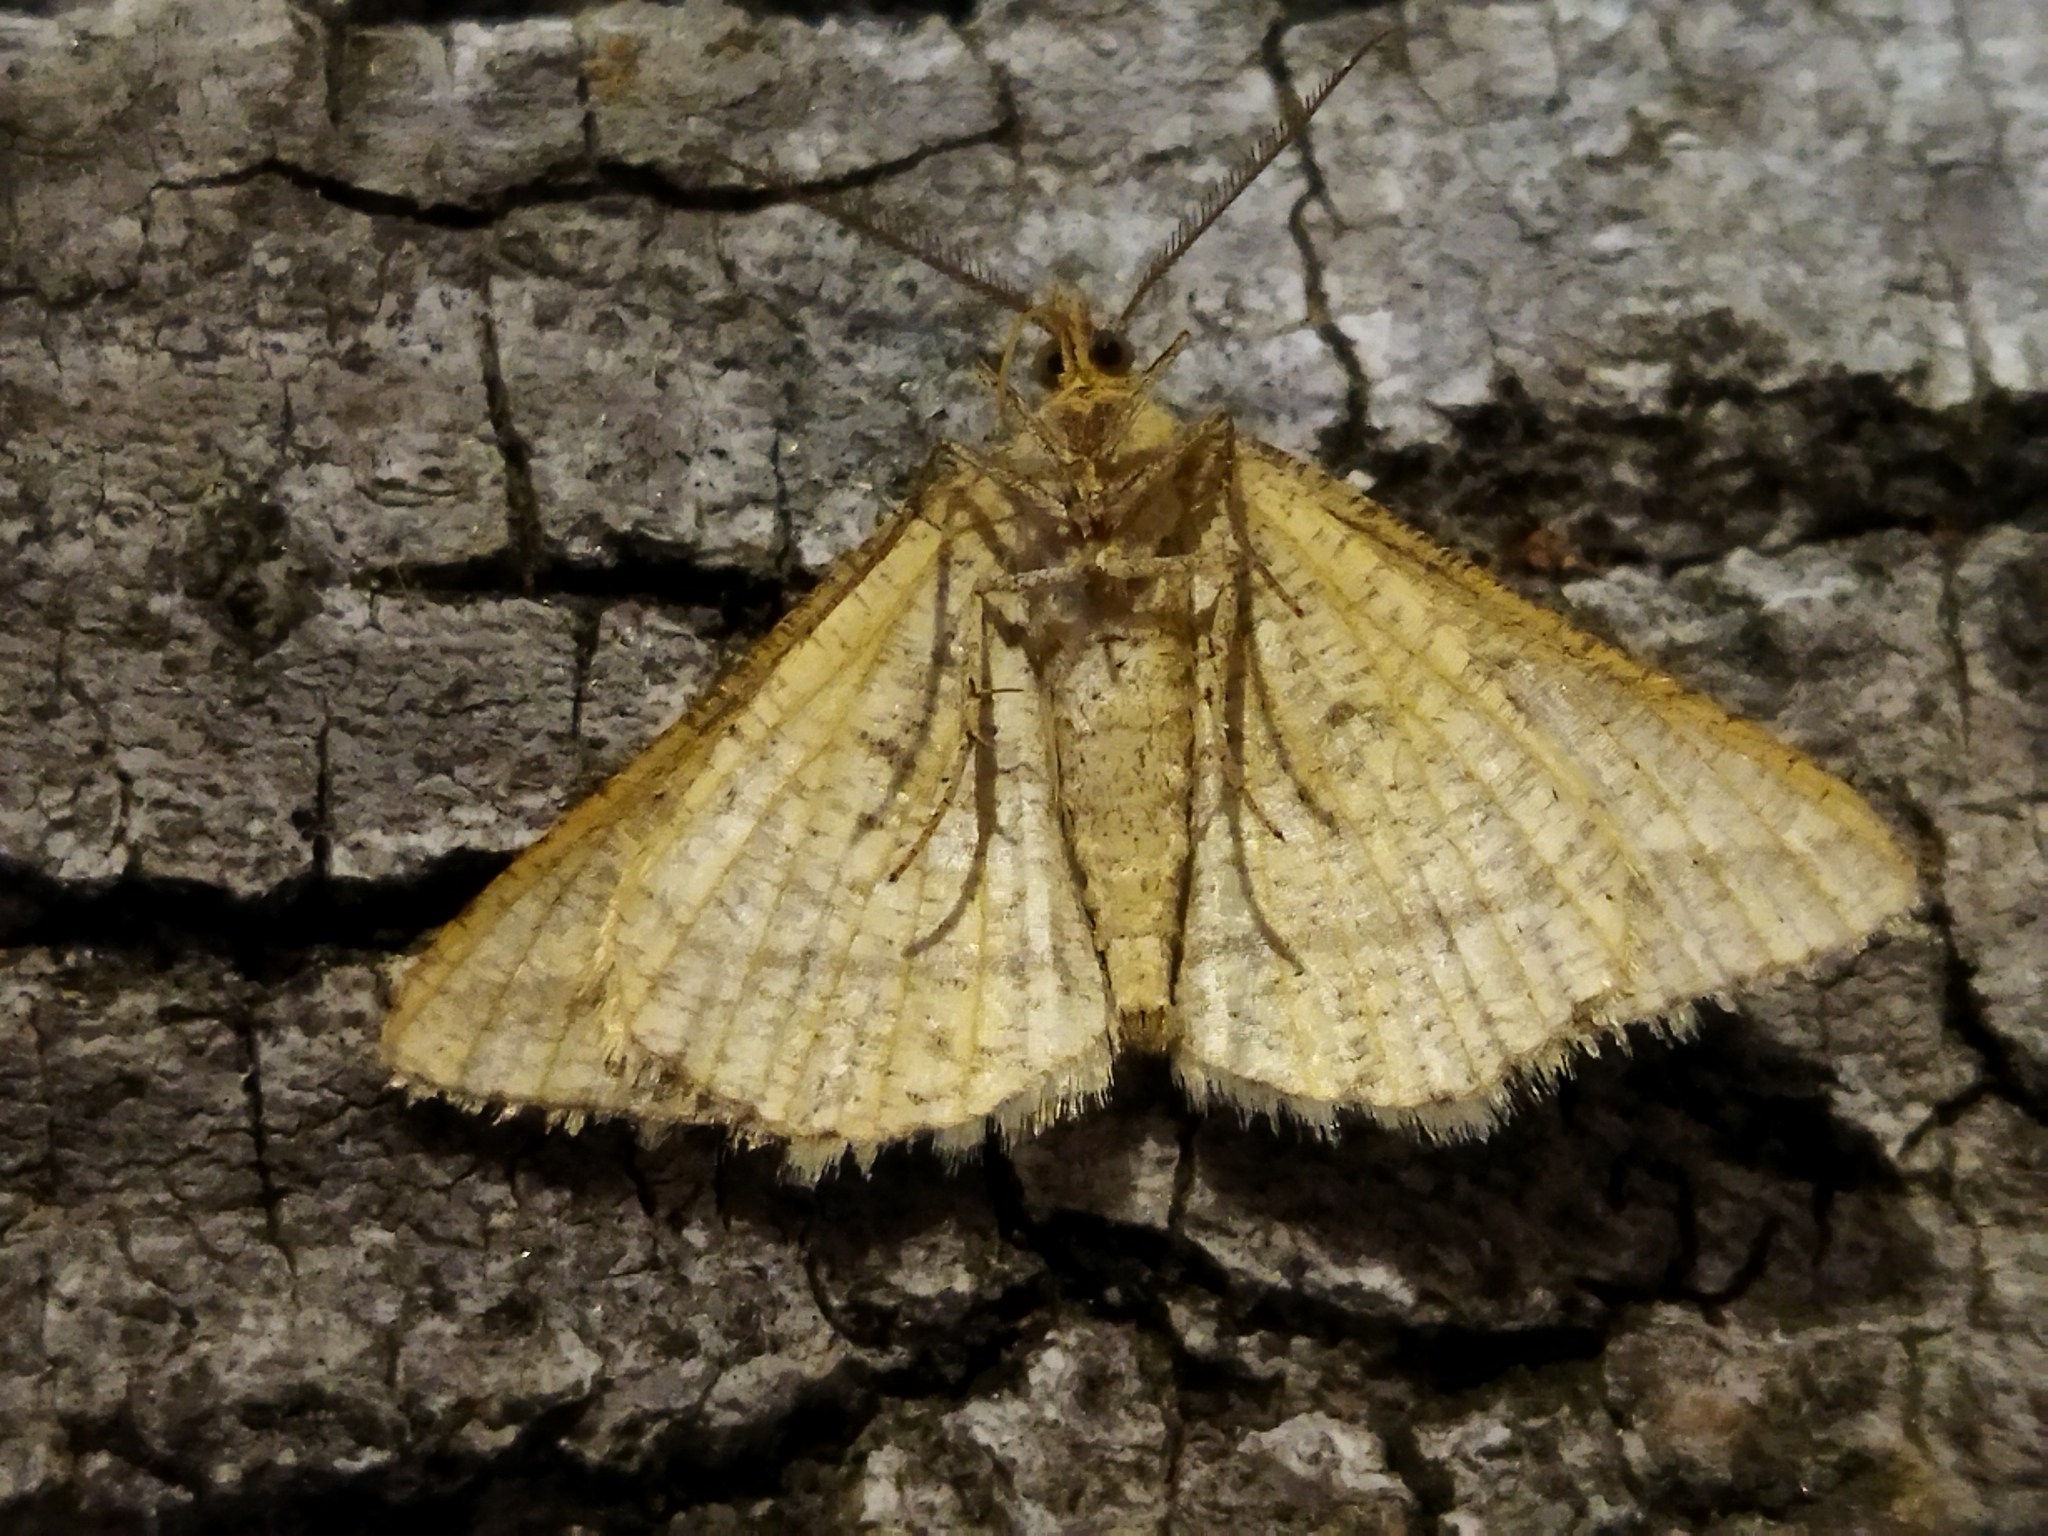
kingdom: Animalia
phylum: Arthropoda
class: Insecta
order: Lepidoptera
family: Geometridae
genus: Tephrina
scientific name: Tephrina arenacearia
